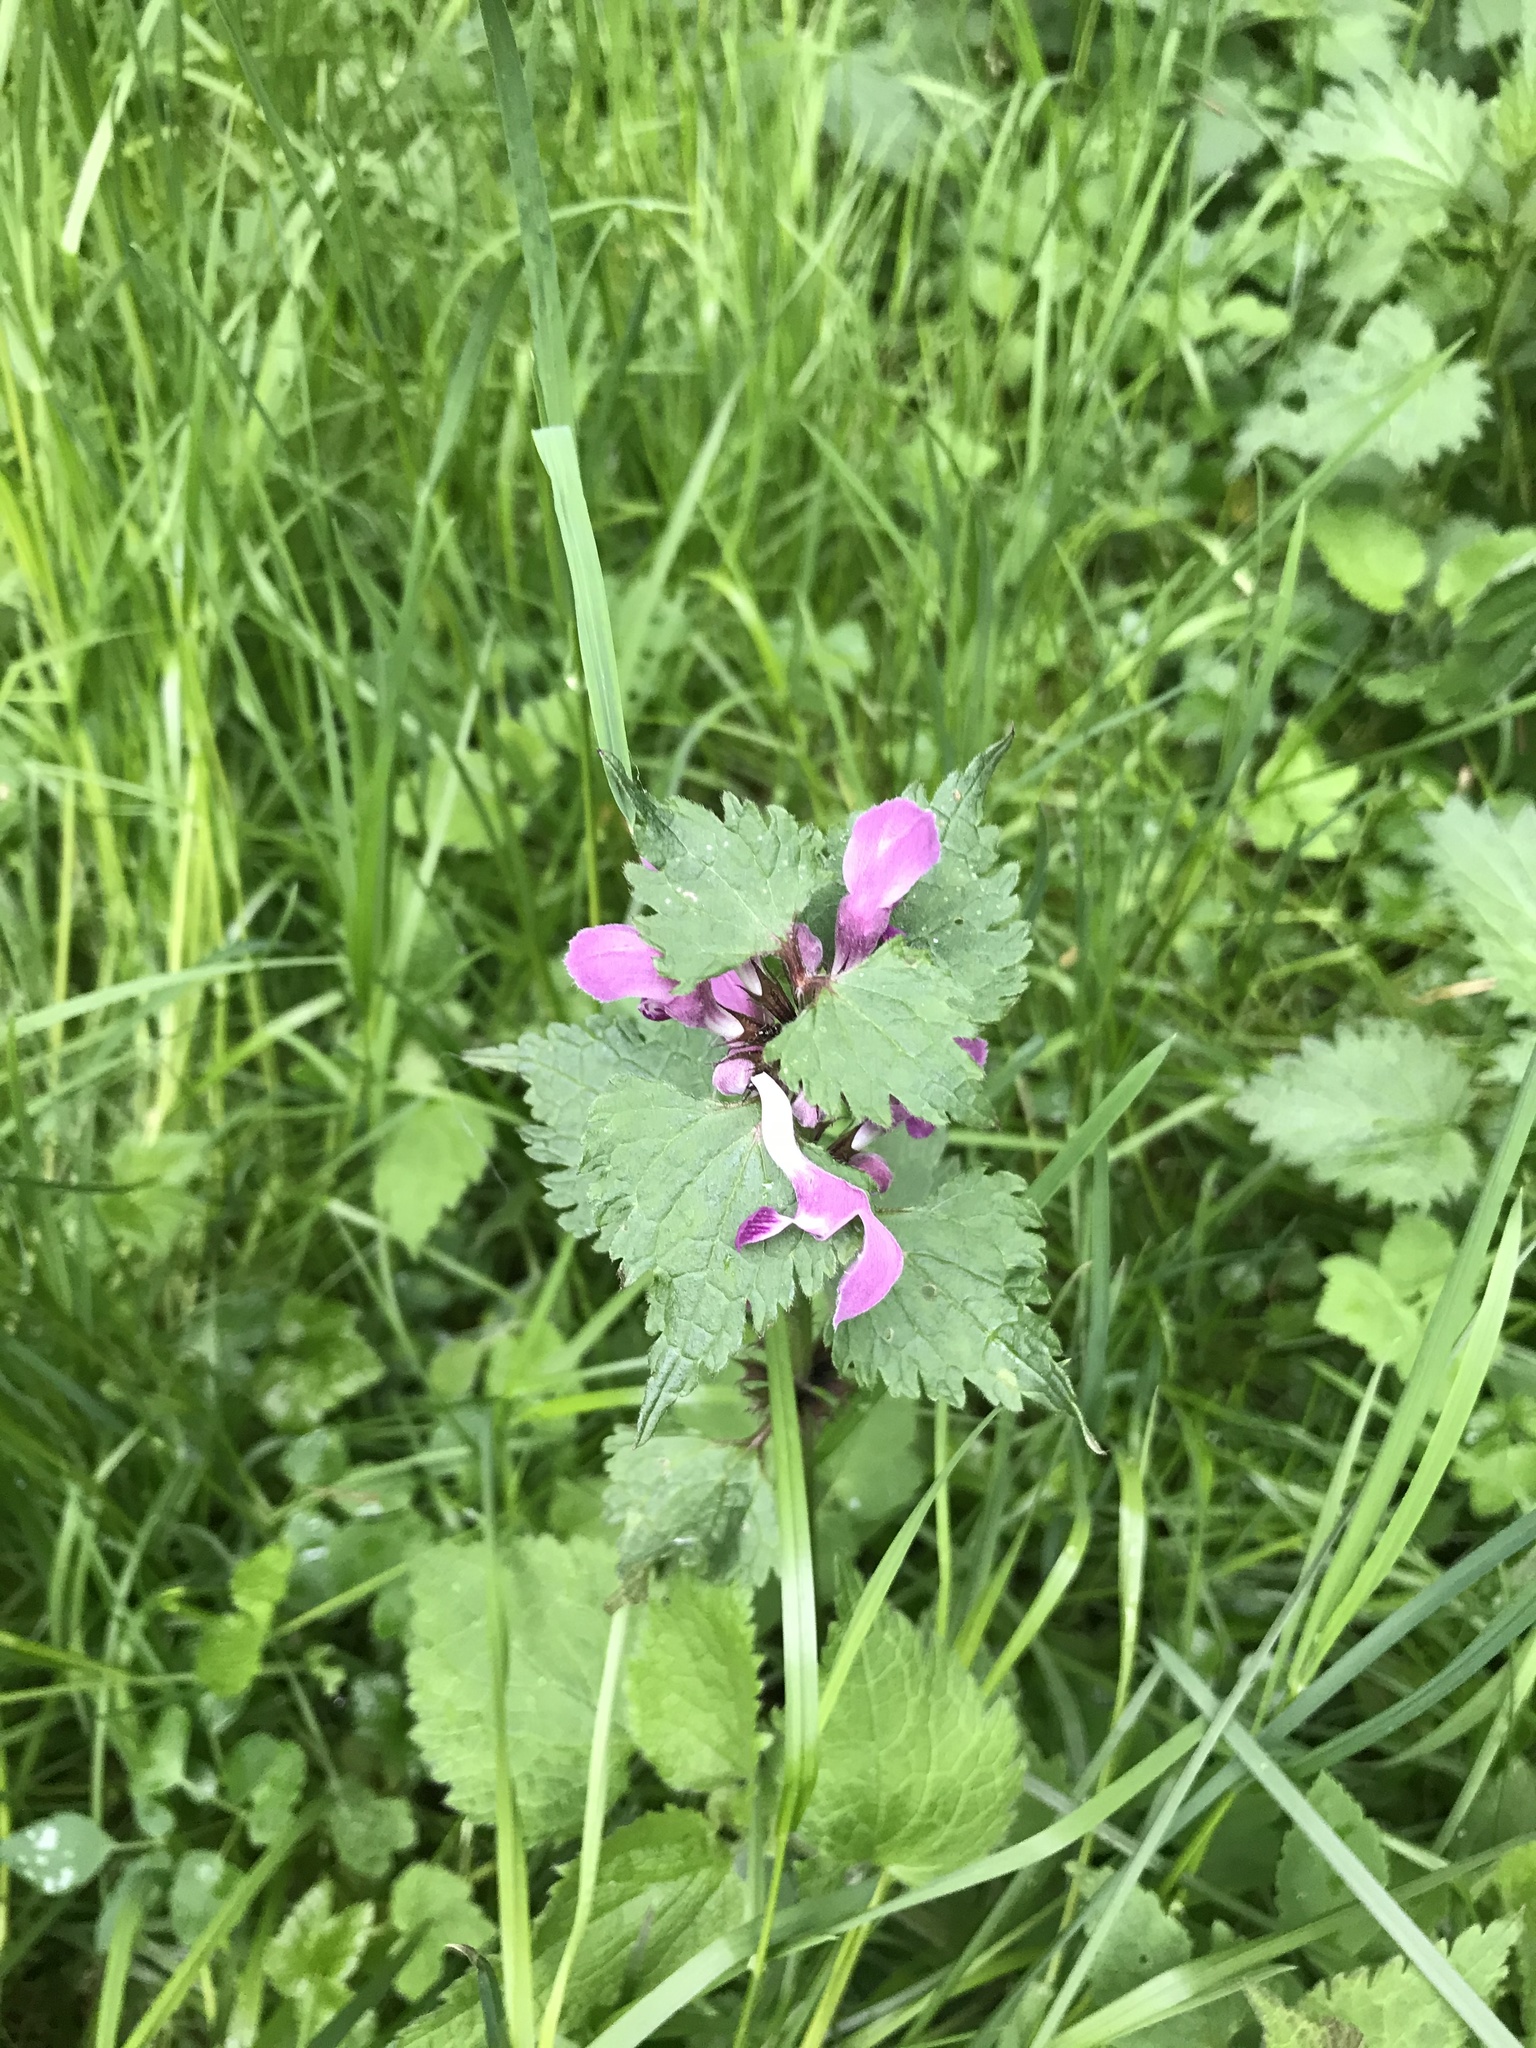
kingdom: Plantae
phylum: Tracheophyta
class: Magnoliopsida
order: Lamiales
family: Lamiaceae
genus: Lamium
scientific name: Lamium maculatum
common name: Spotted dead-nettle
